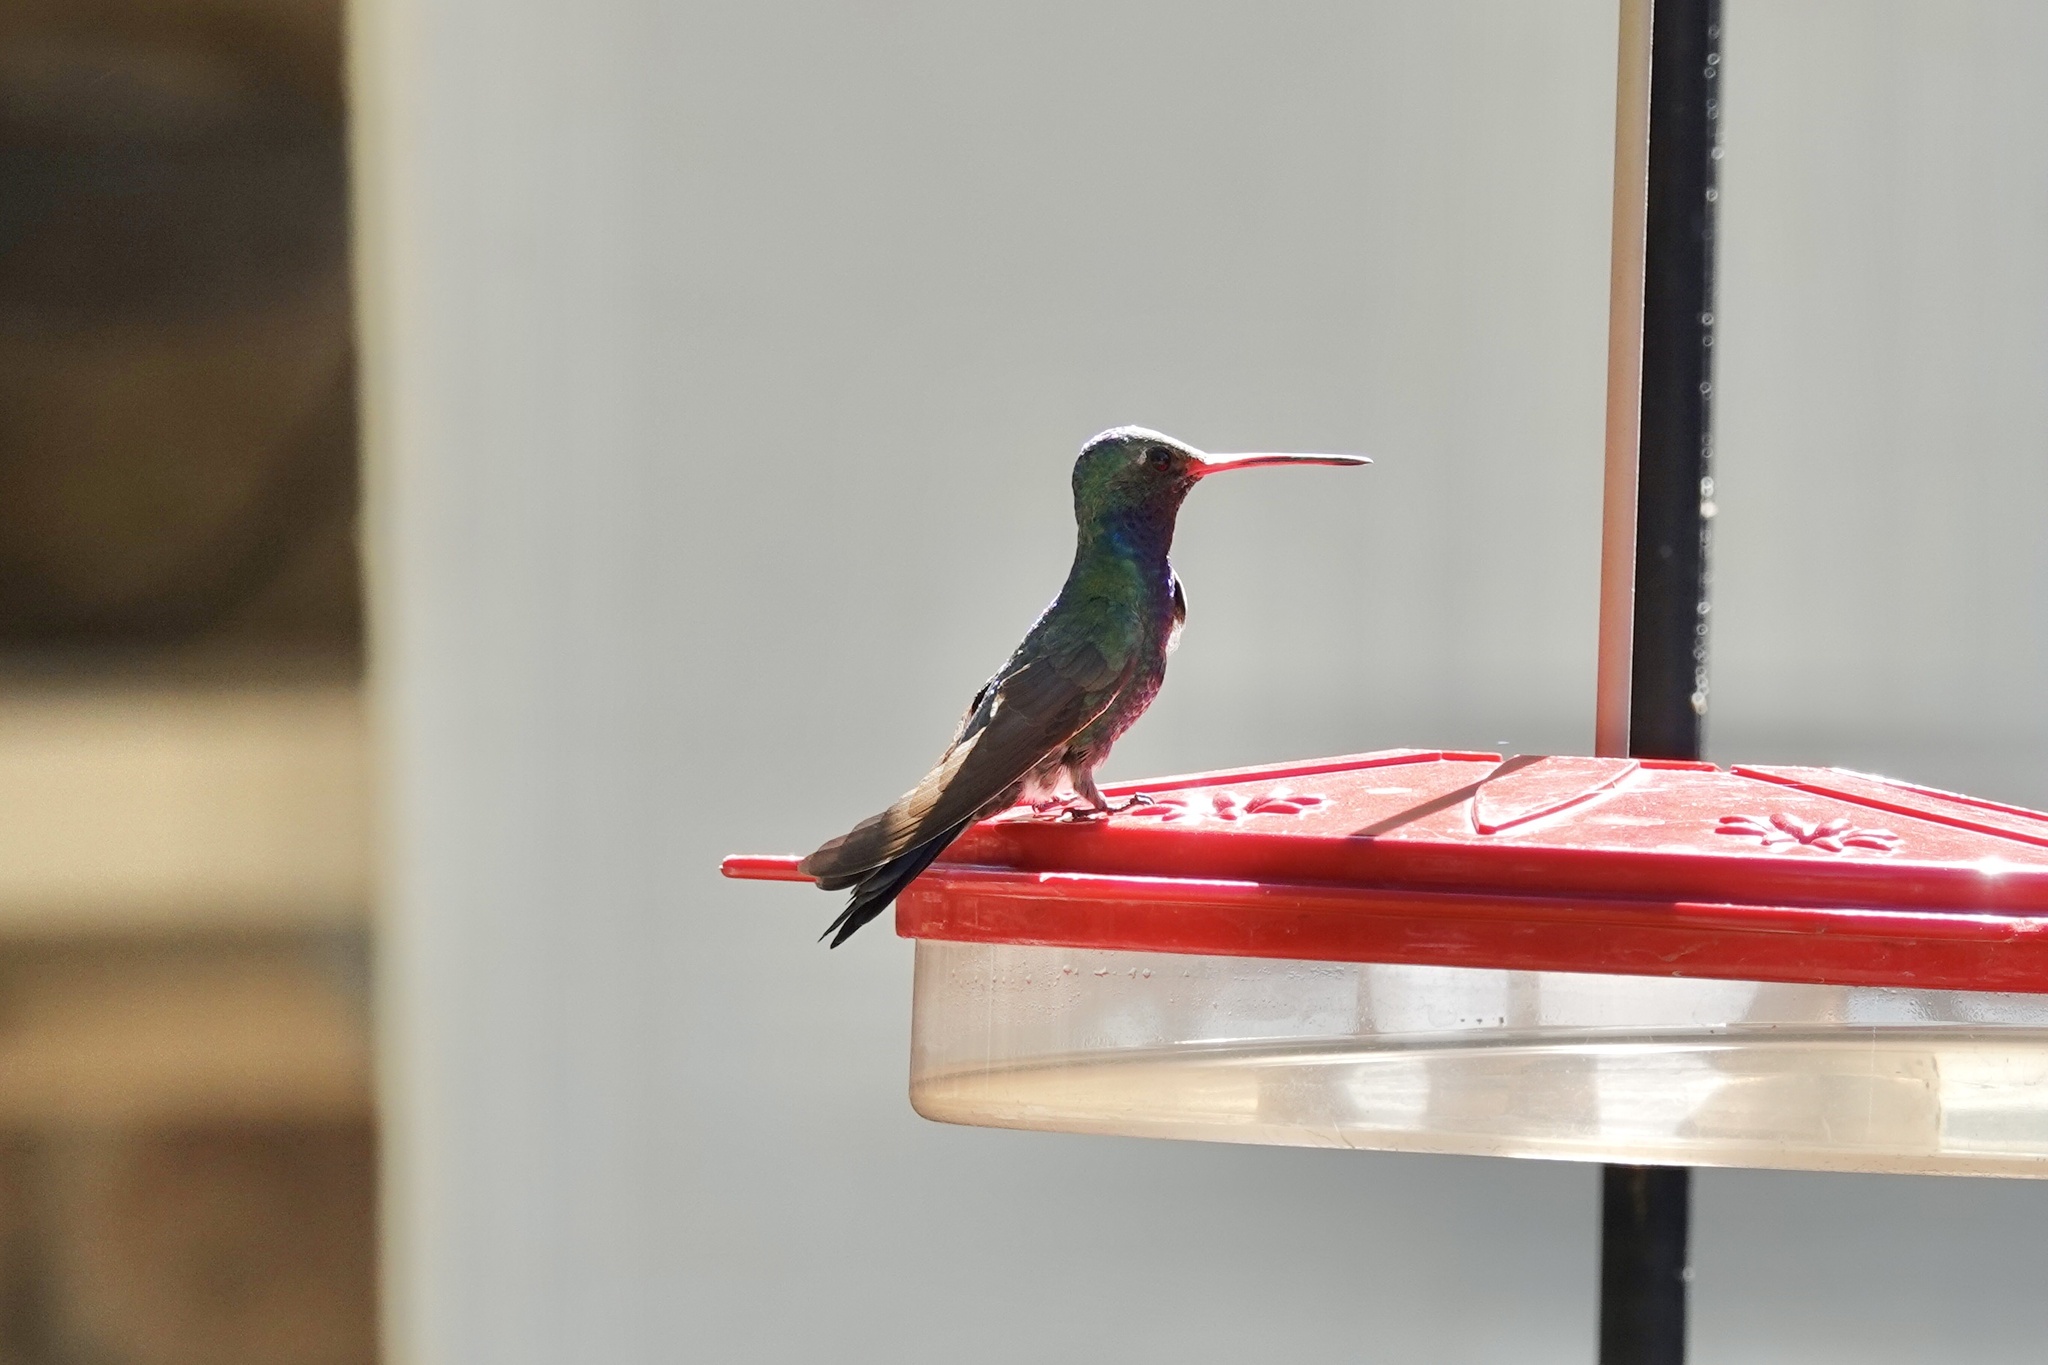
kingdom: Animalia
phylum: Chordata
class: Aves
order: Apodiformes
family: Trochilidae
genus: Cynanthus
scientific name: Cynanthus latirostris
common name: Broad-billed hummingbird
